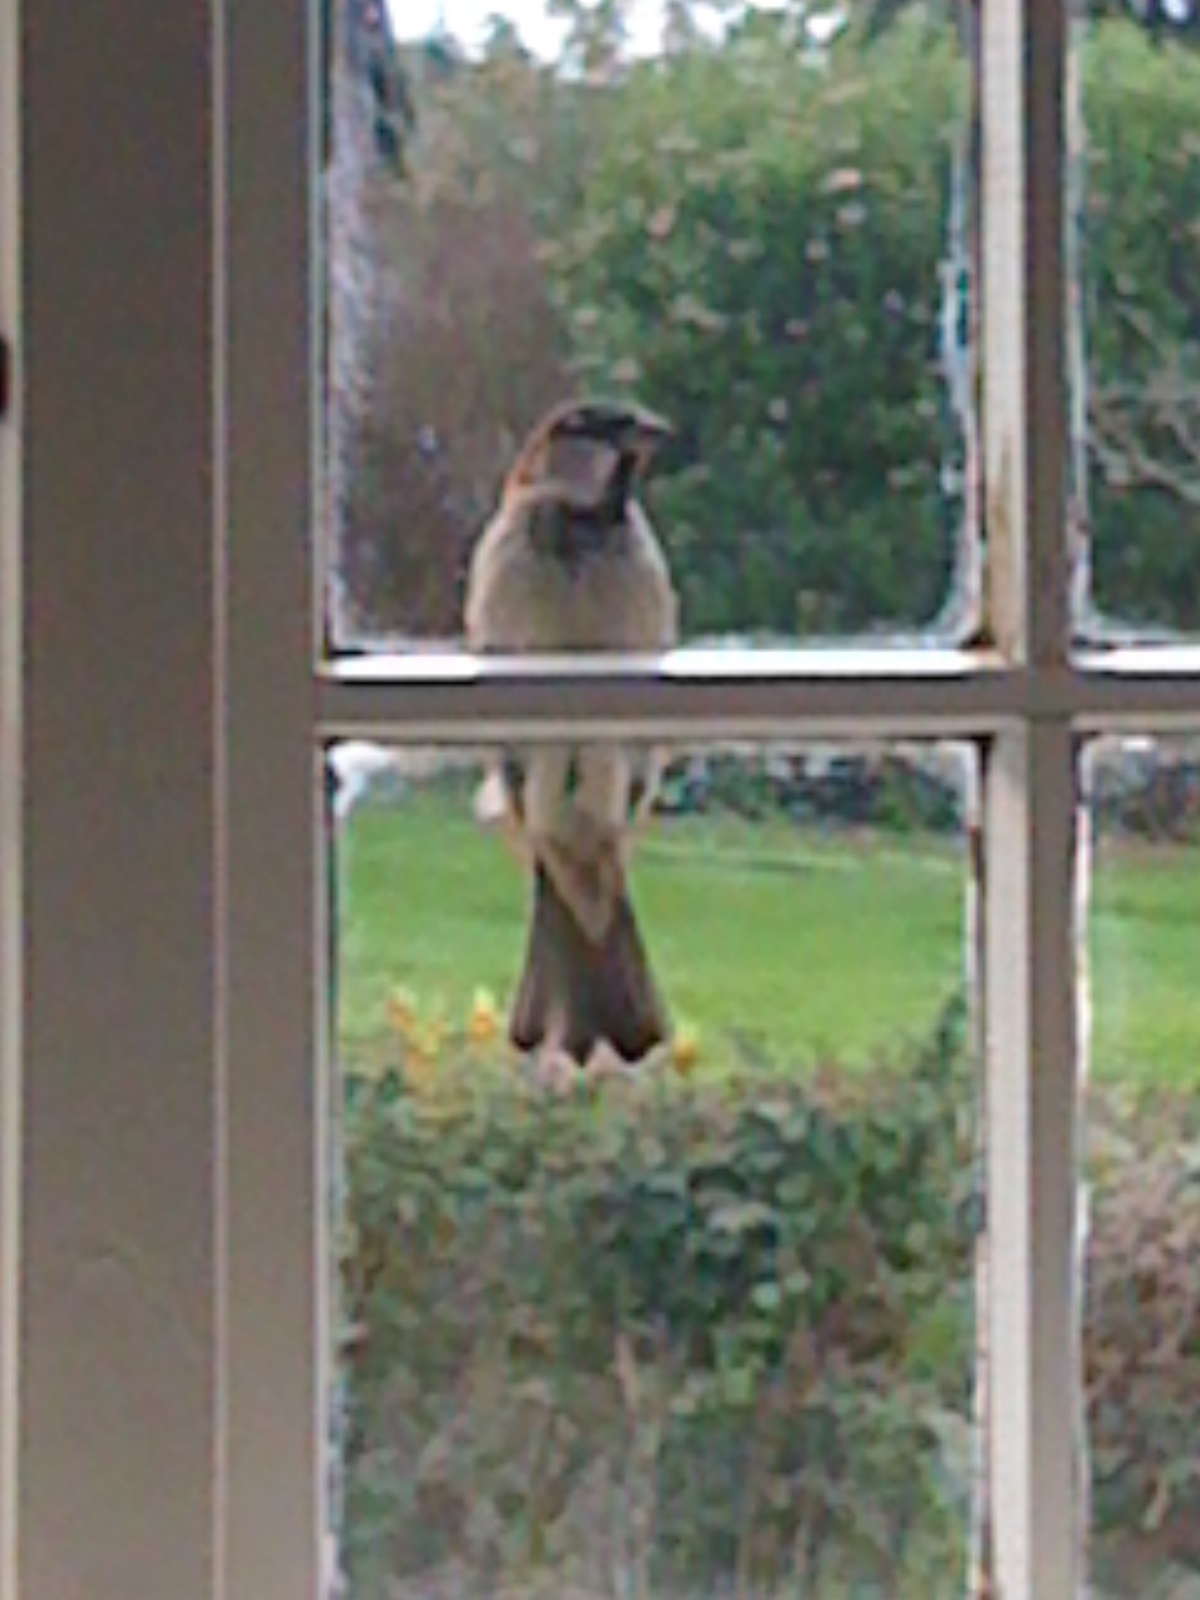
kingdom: Animalia
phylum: Chordata
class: Aves
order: Passeriformes
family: Passeridae
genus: Passer
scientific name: Passer domesticus
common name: House sparrow
